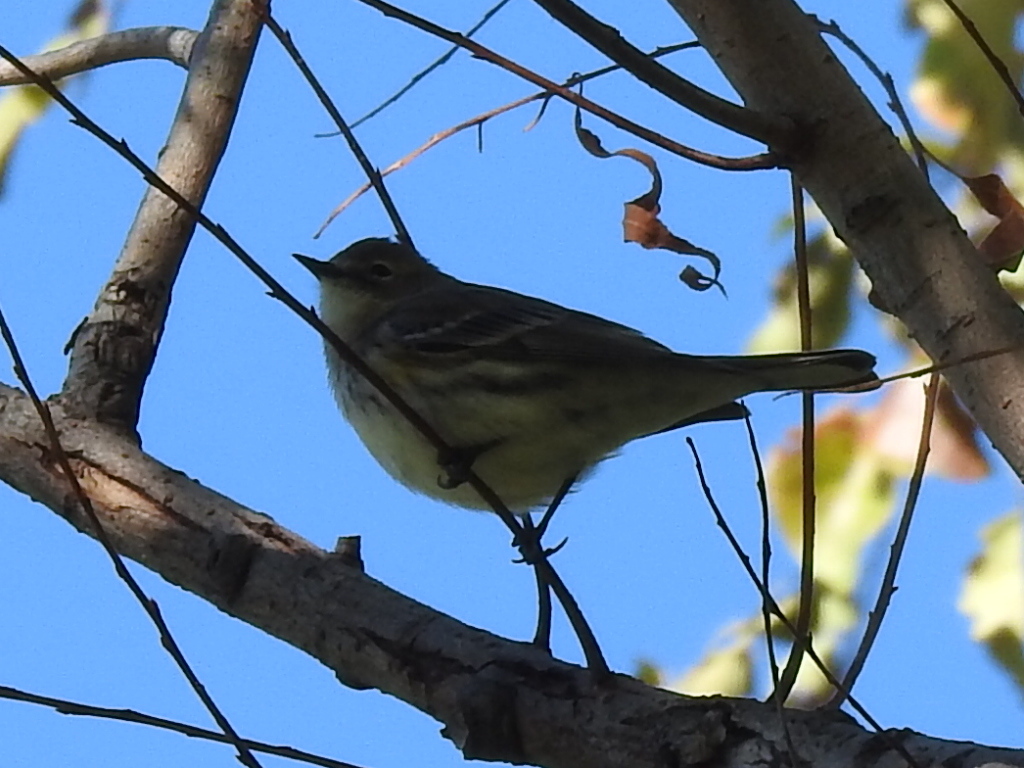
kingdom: Animalia
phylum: Chordata
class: Aves
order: Passeriformes
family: Parulidae
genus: Setophaga
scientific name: Setophaga coronata
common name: Myrtle warbler
